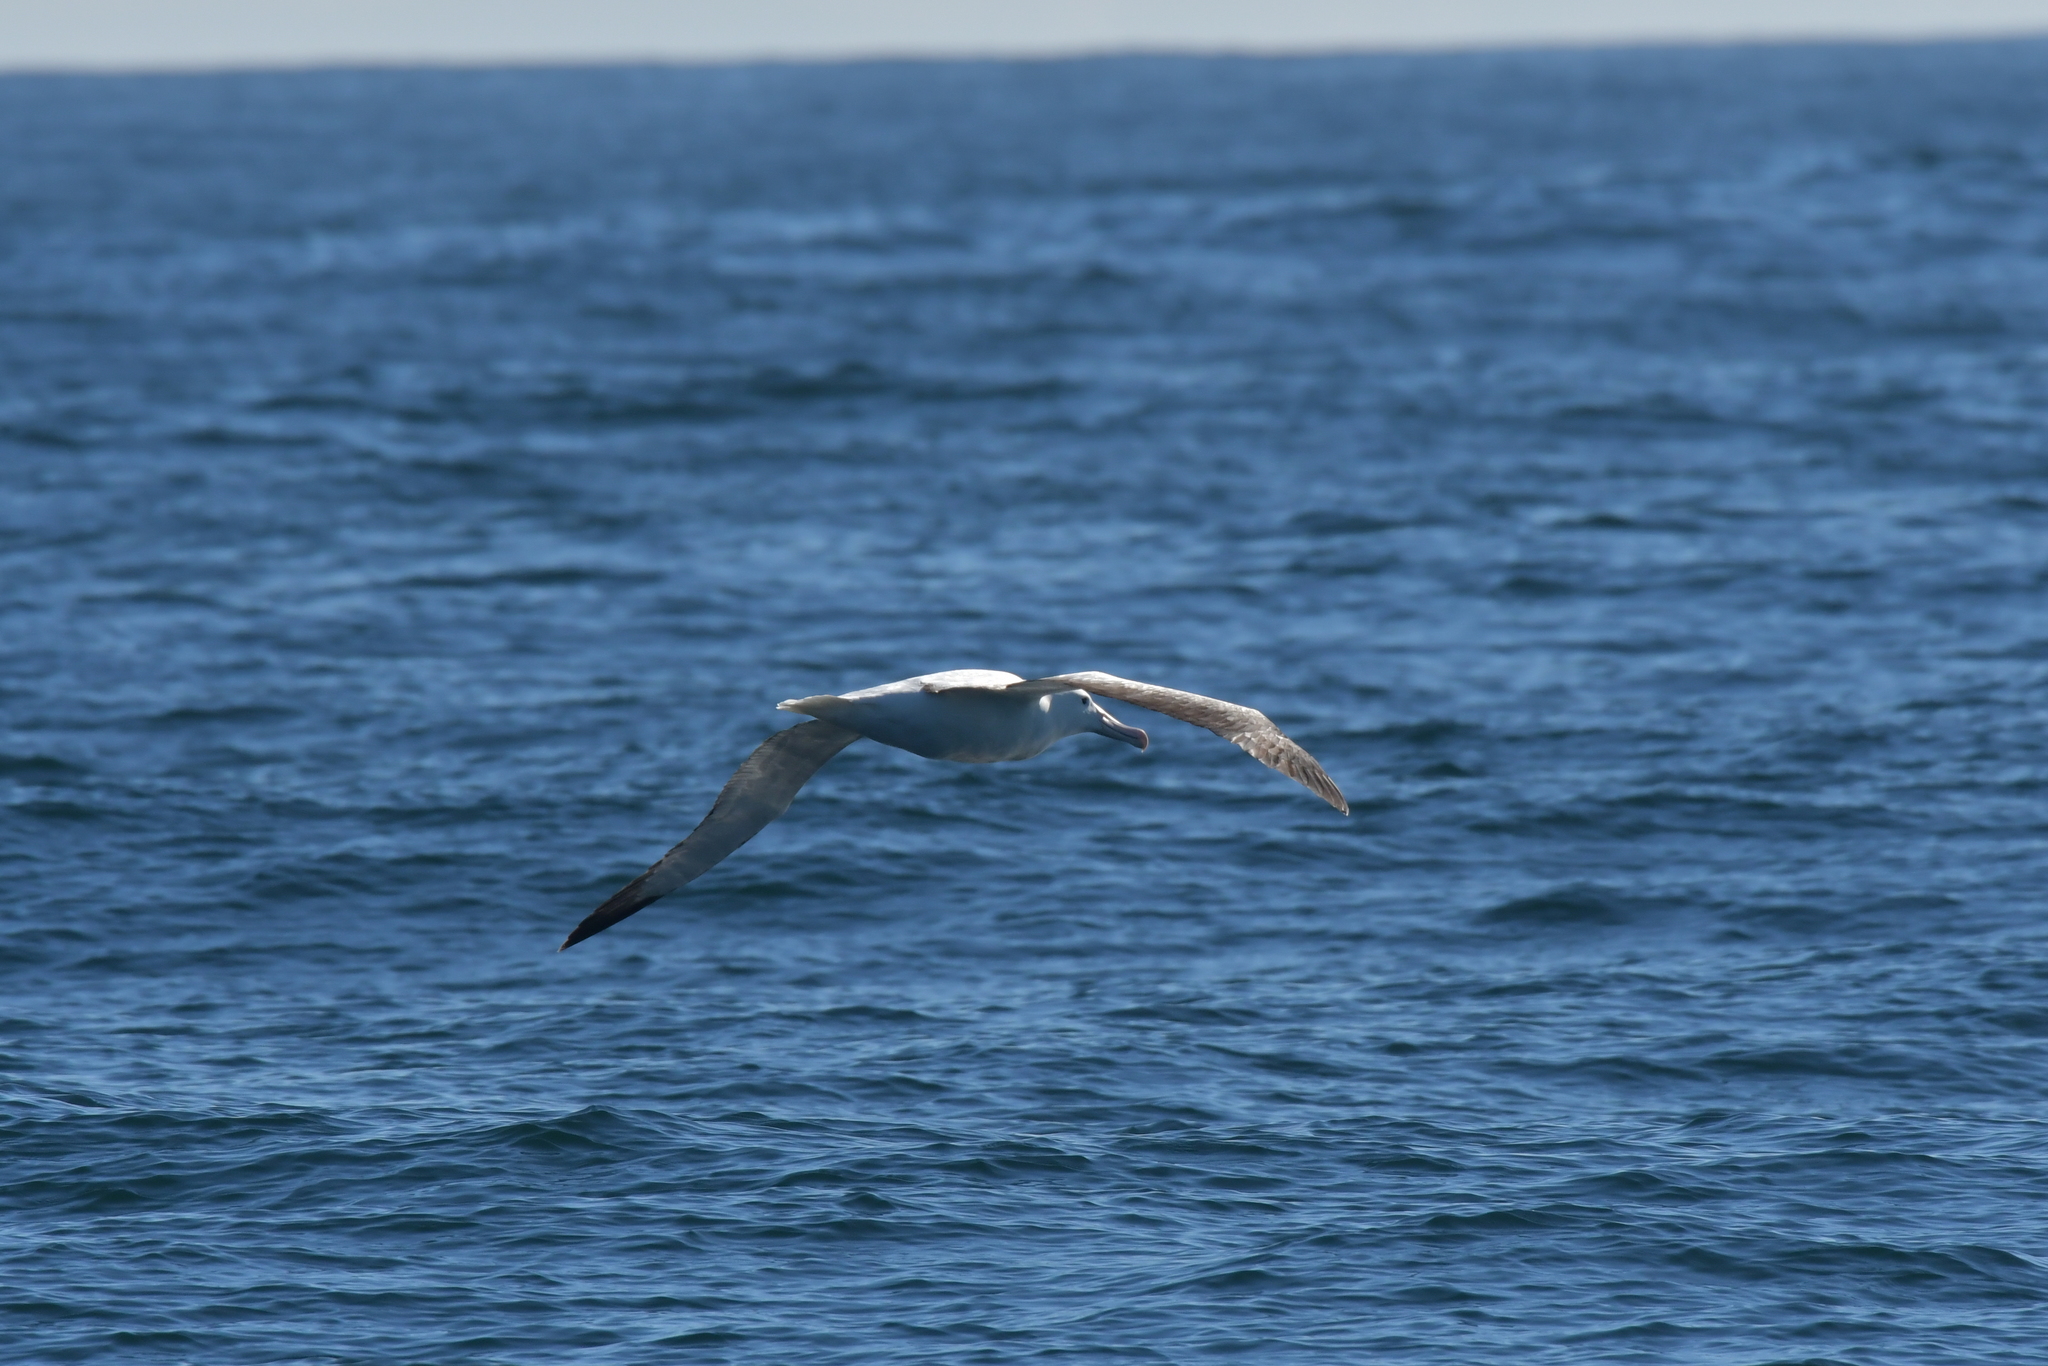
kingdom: Animalia
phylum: Chordata
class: Aves
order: Procellariiformes
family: Diomedeidae
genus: Diomedea
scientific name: Diomedea epomophora
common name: Southern royal albatross
